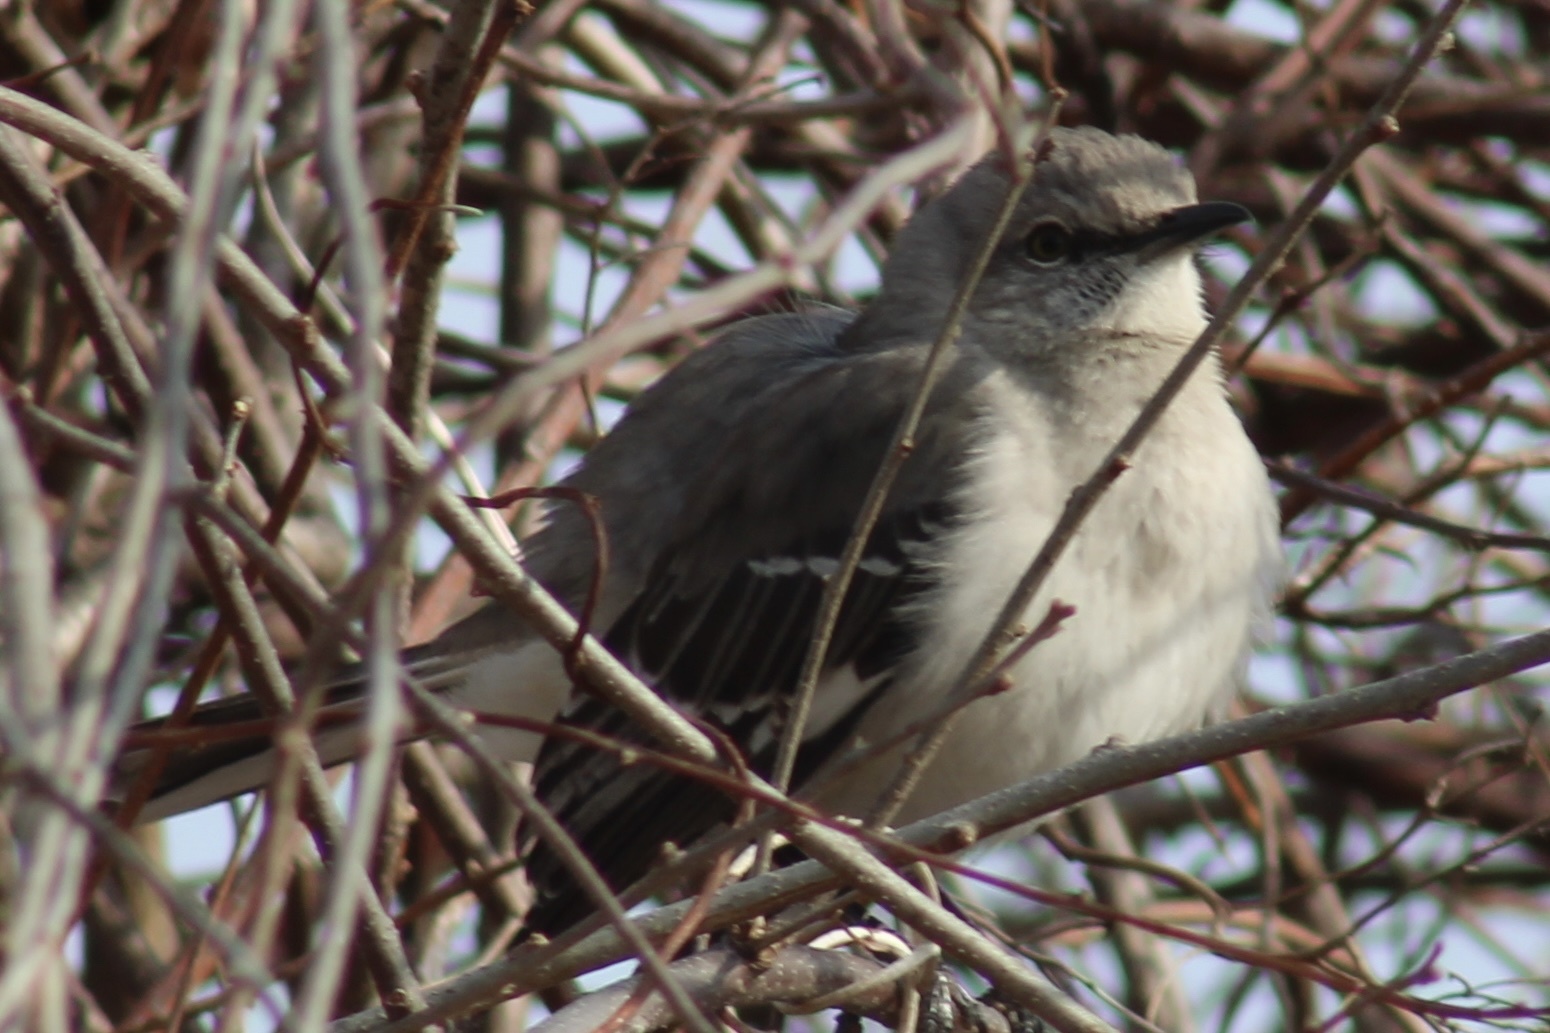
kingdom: Animalia
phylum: Chordata
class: Aves
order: Passeriformes
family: Mimidae
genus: Mimus
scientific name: Mimus polyglottos
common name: Northern mockingbird
